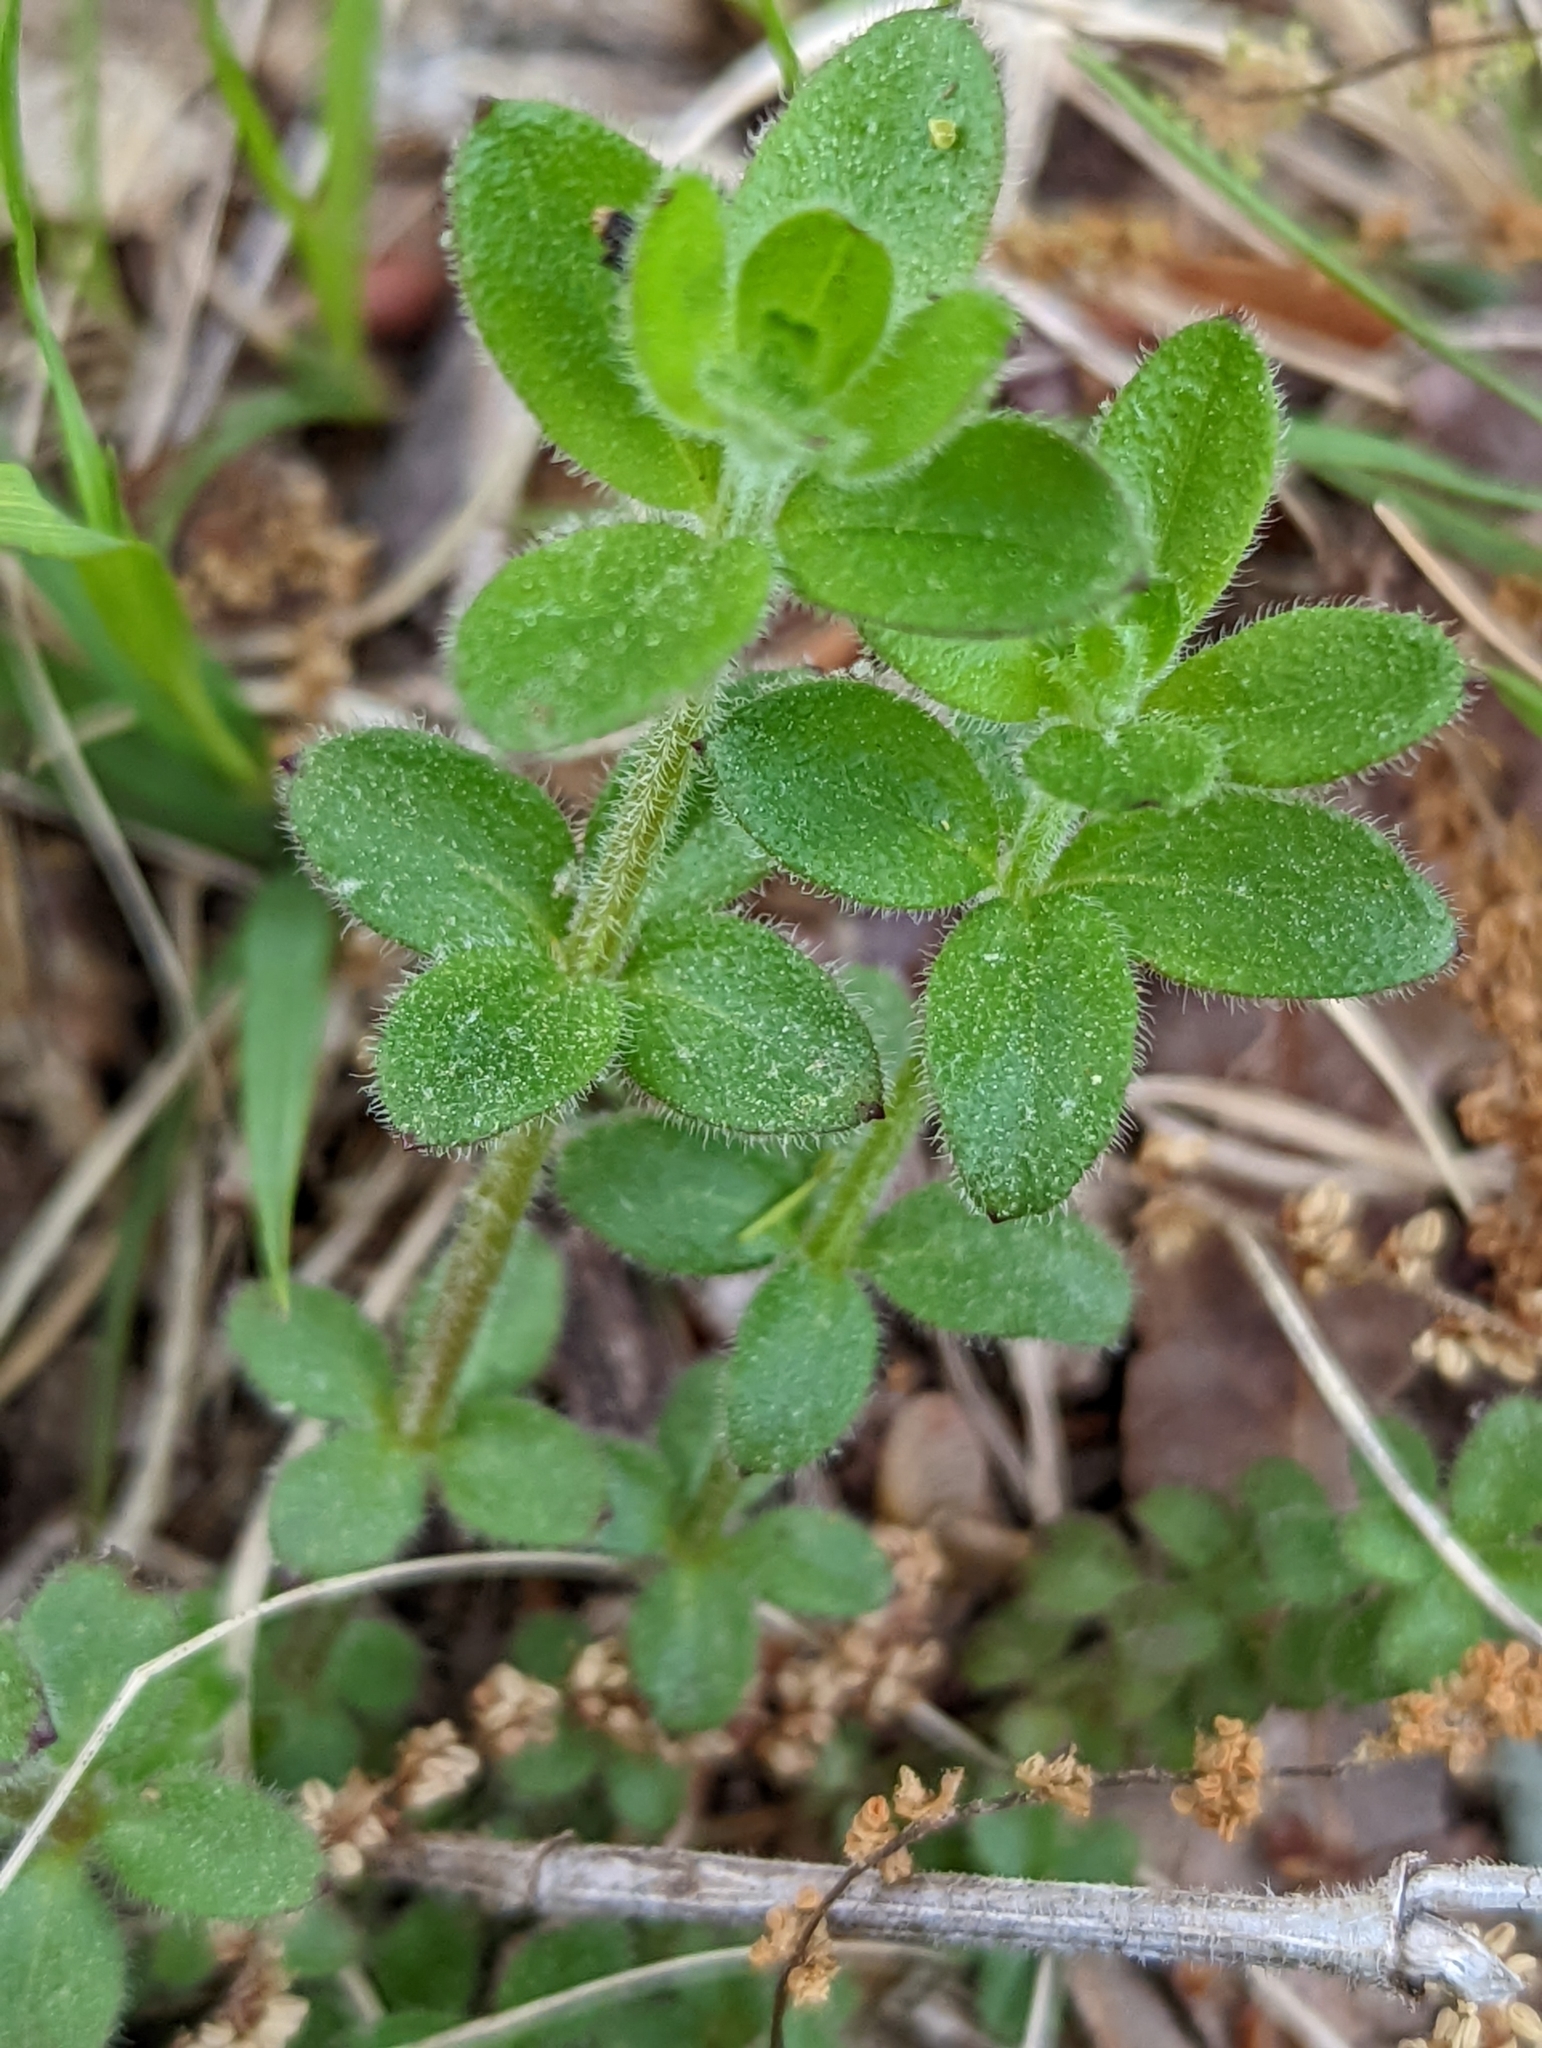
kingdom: Plantae
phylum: Tracheophyta
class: Magnoliopsida
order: Gentianales
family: Rubiaceae
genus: Galium
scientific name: Galium pilosum
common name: Hairy bedstraw
